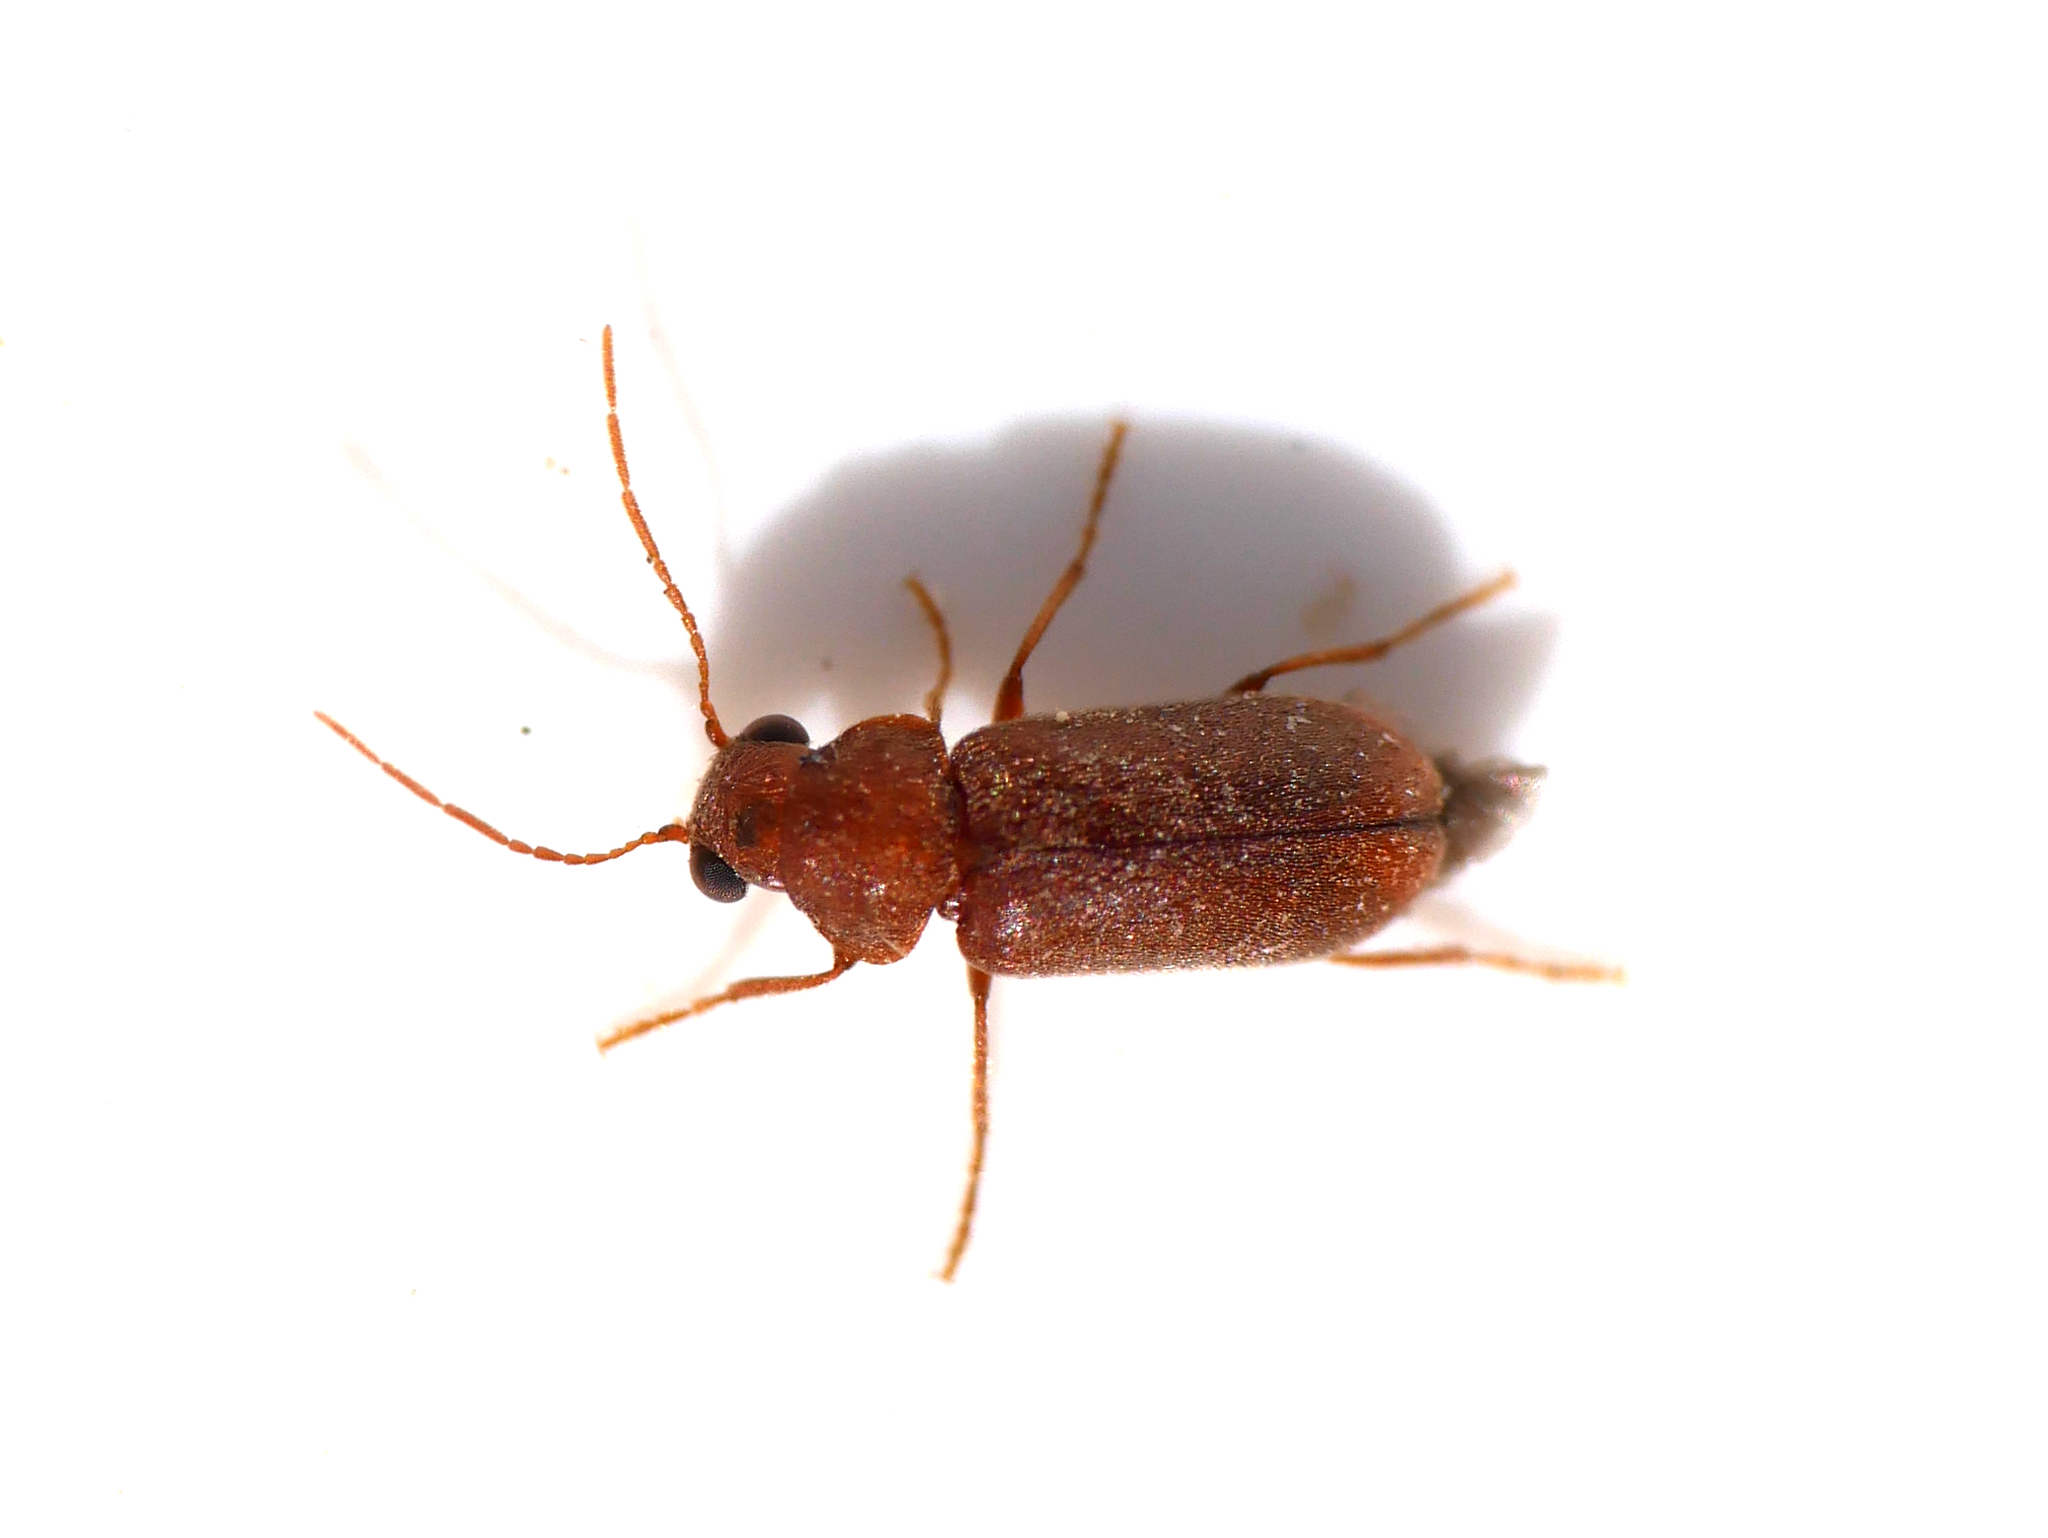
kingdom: Animalia
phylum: Arthropoda
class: Insecta
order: Coleoptera
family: Anobiidae
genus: Ernobius
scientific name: Ernobius mollis
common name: Pine bark anobiid beetle
